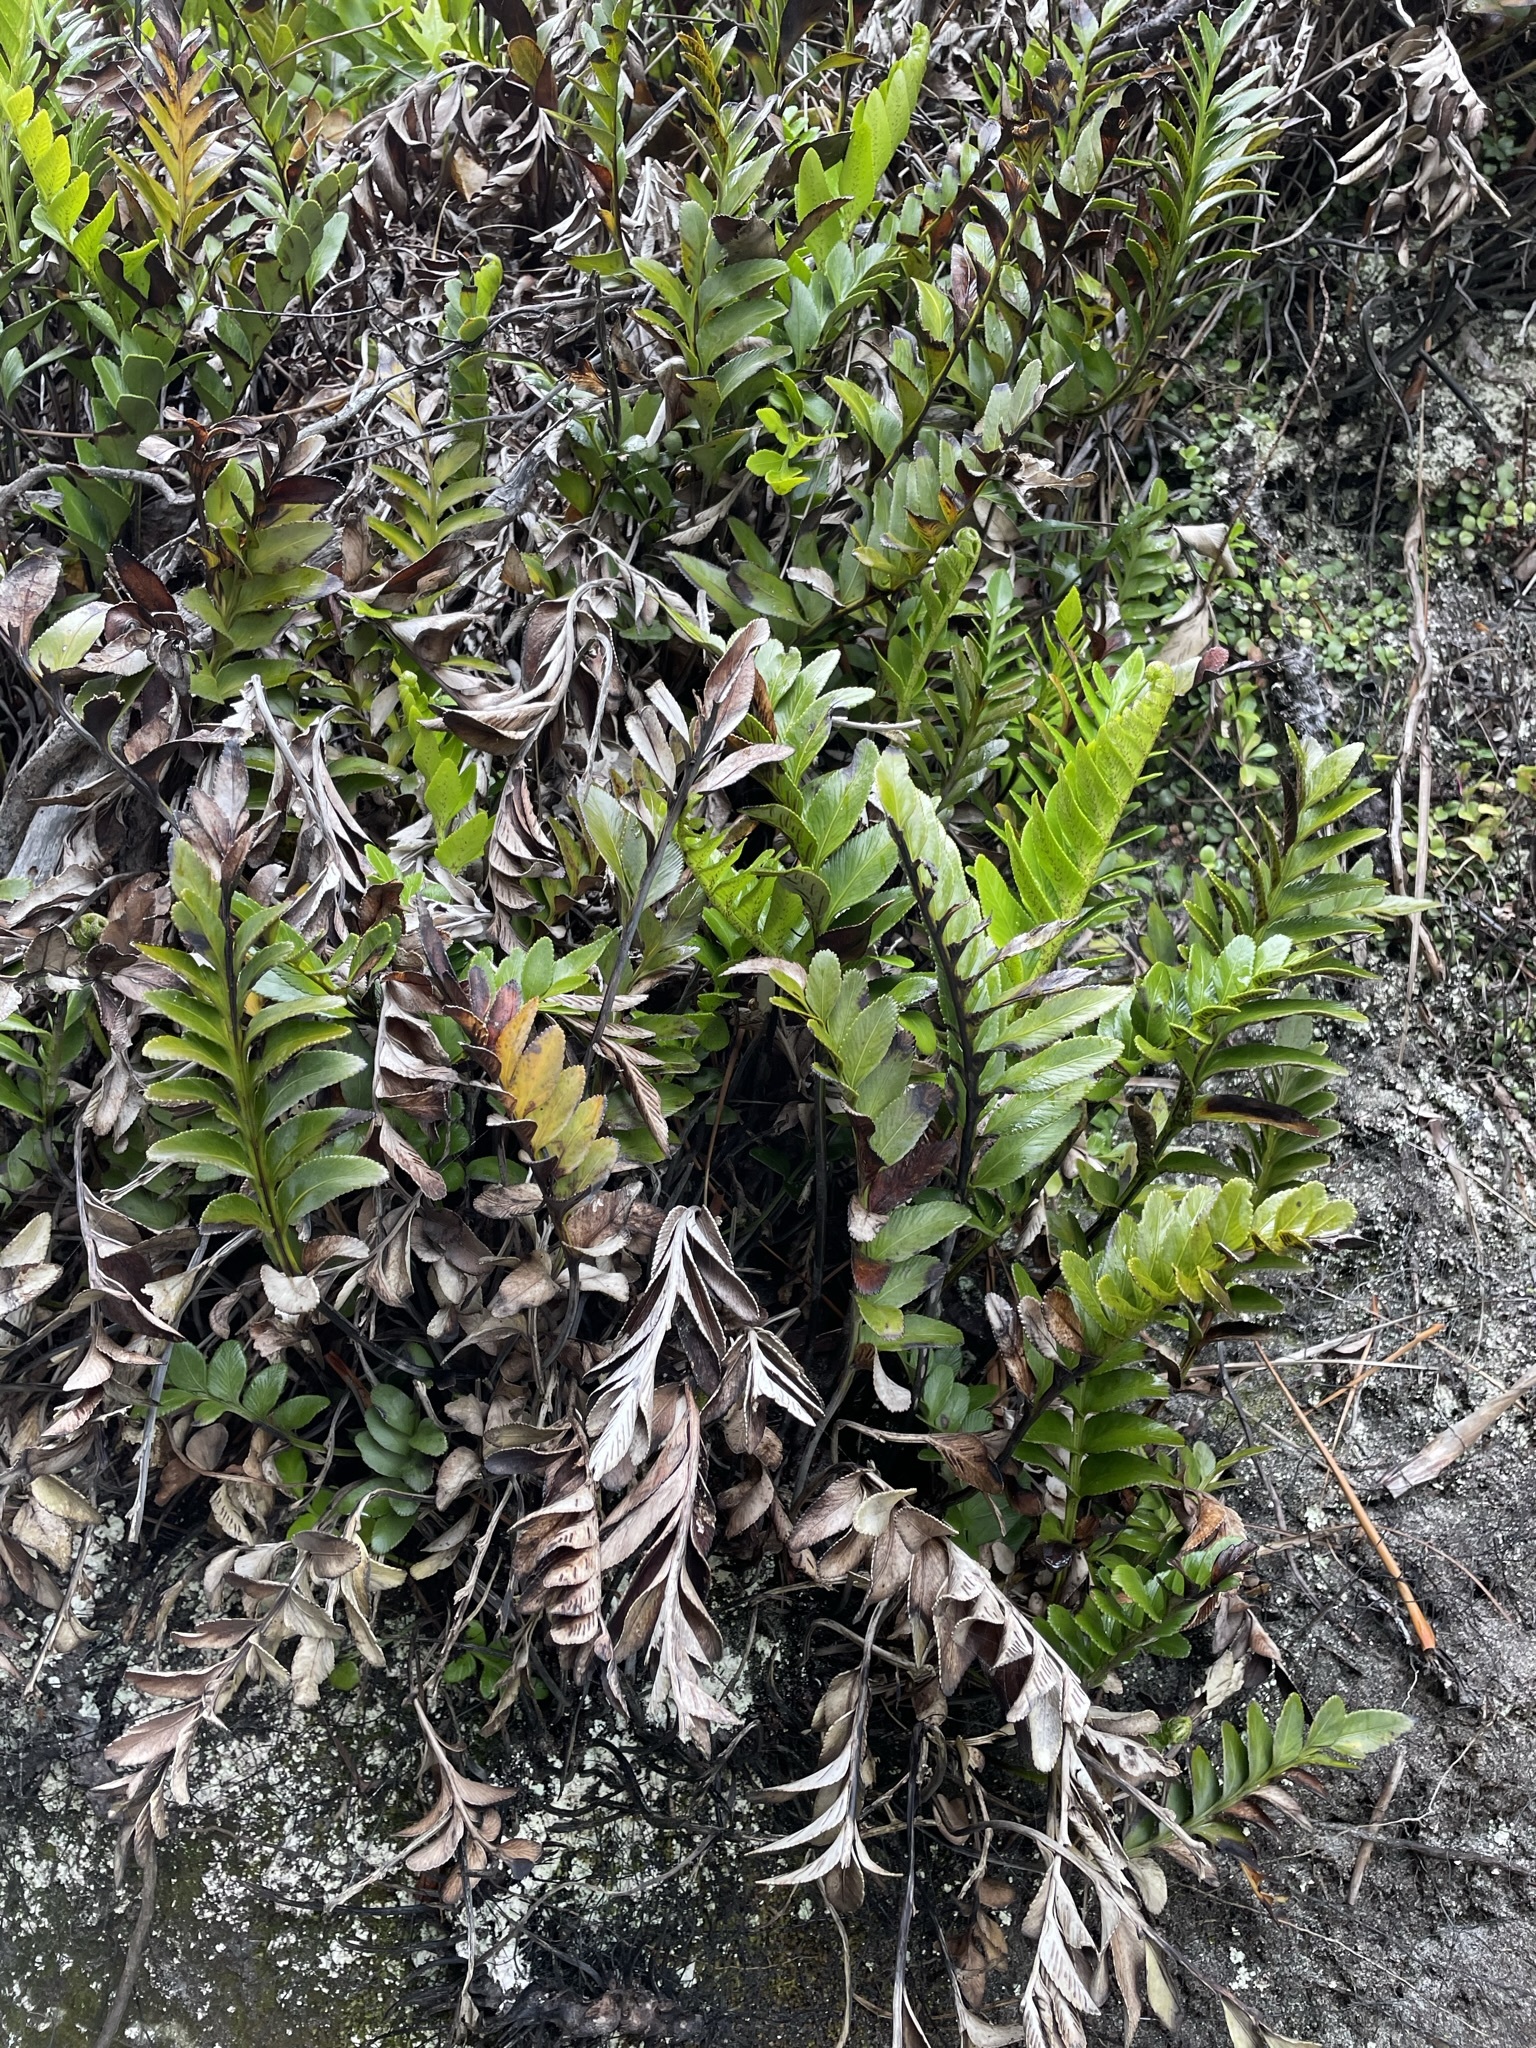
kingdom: Plantae
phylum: Tracheophyta
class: Polypodiopsida
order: Polypodiales
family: Aspleniaceae
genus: Asplenium
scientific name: Asplenium obtusatum
